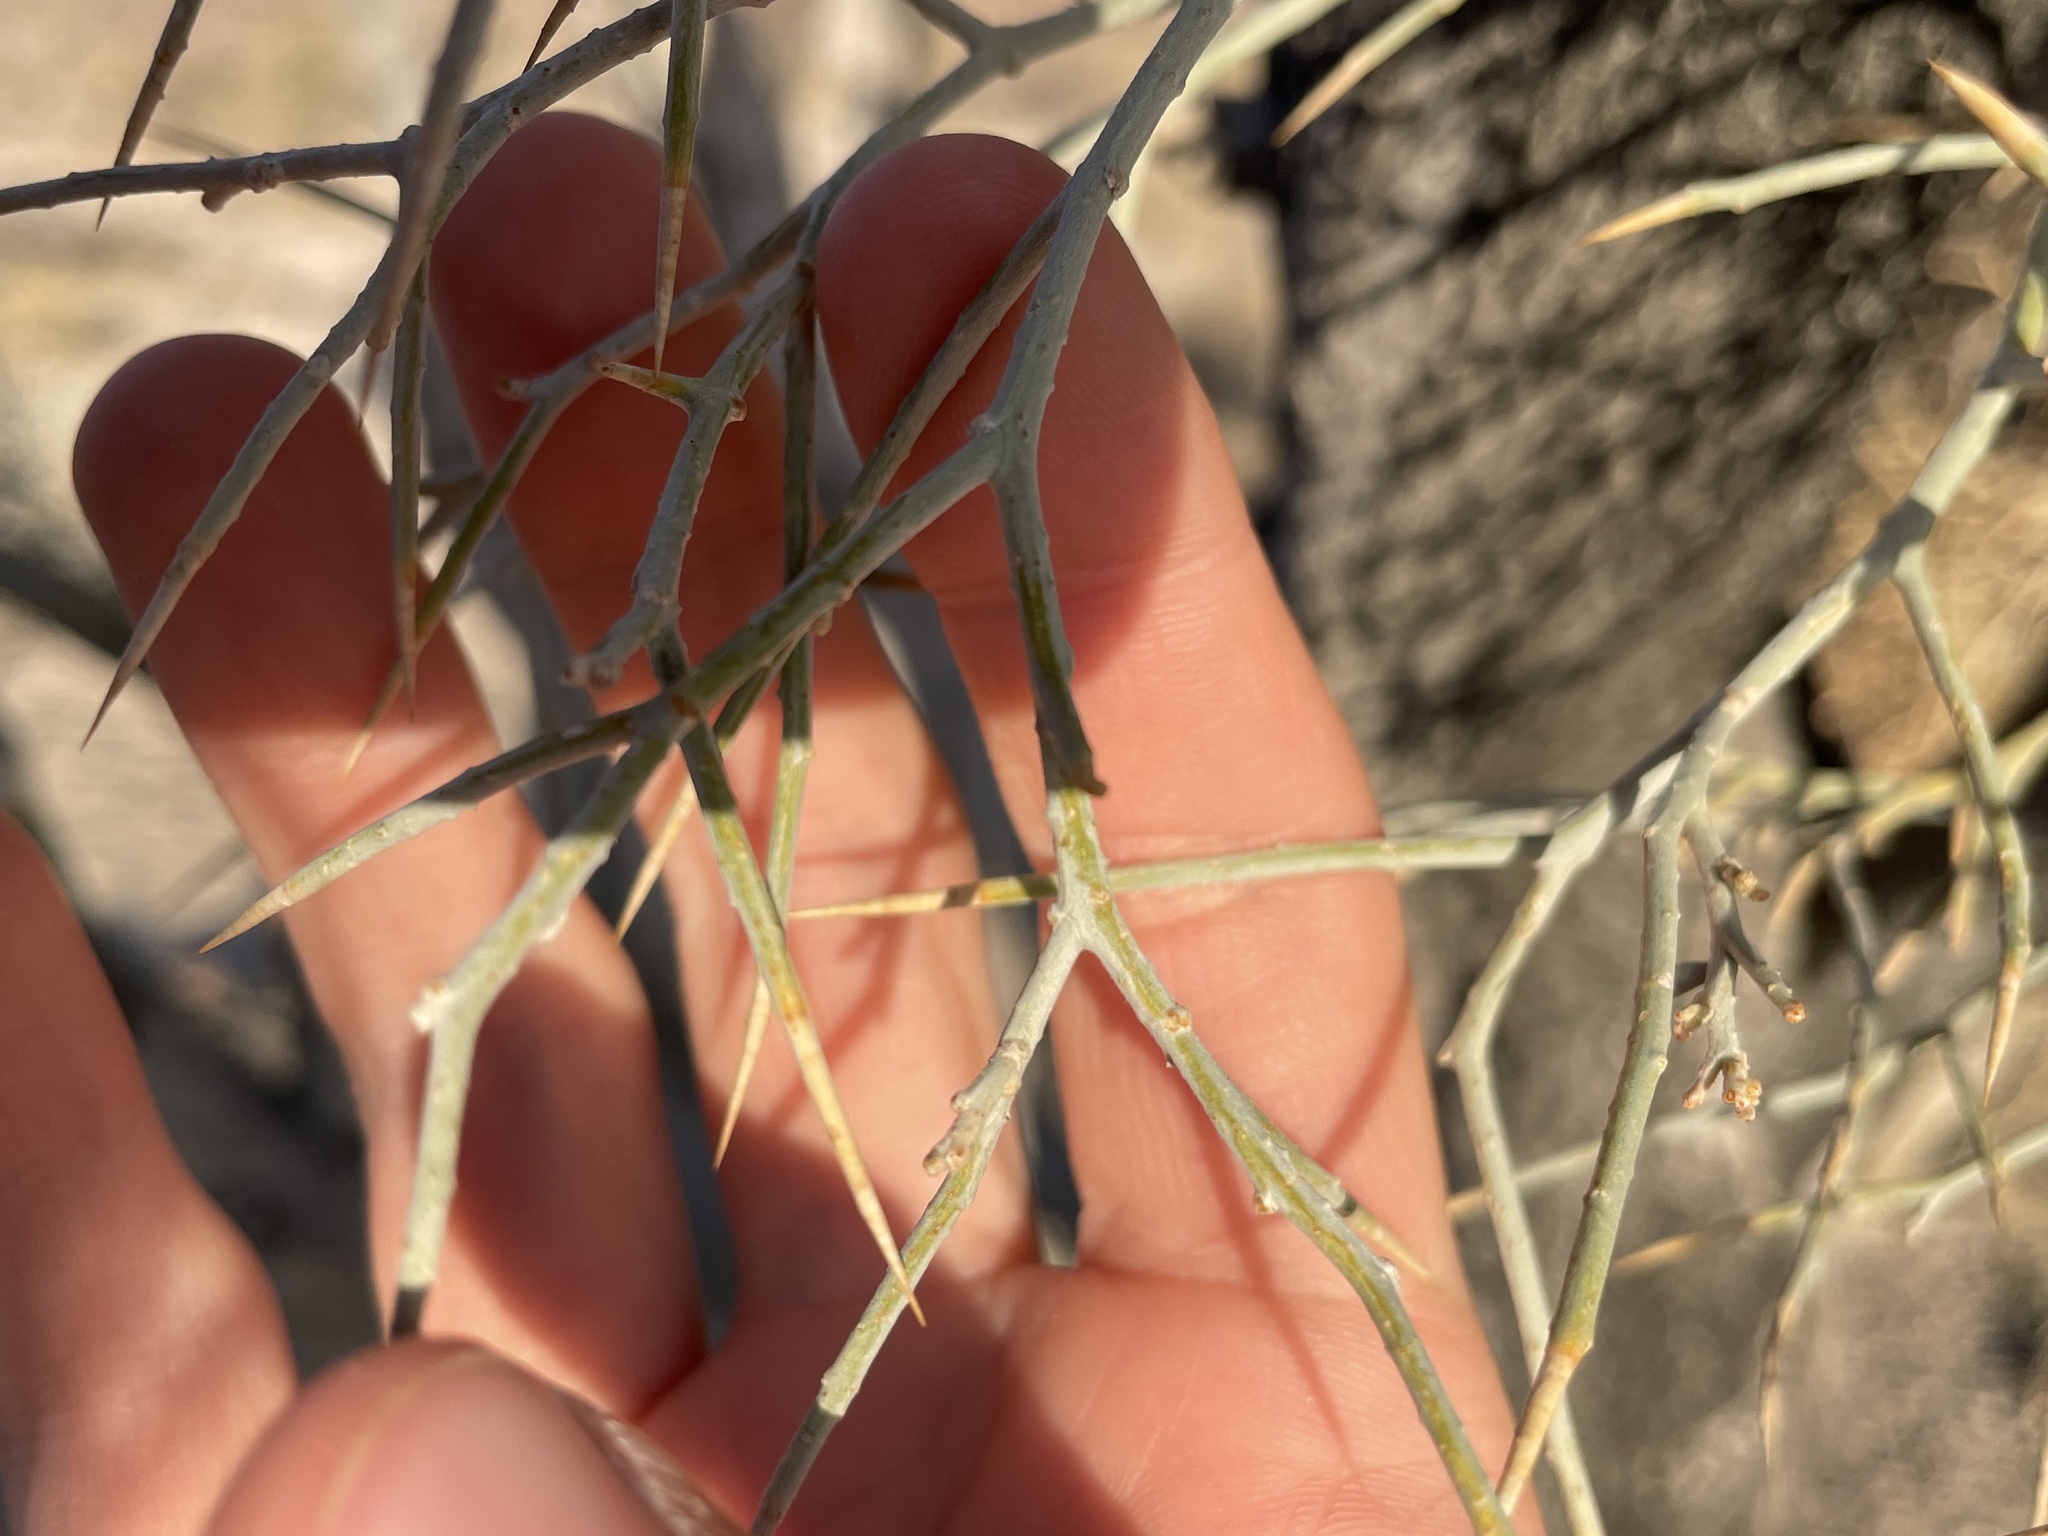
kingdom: Plantae
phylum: Tracheophyta
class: Magnoliopsida
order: Fabales
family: Fabaceae
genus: Psorothamnus
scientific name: Psorothamnus spinosus
